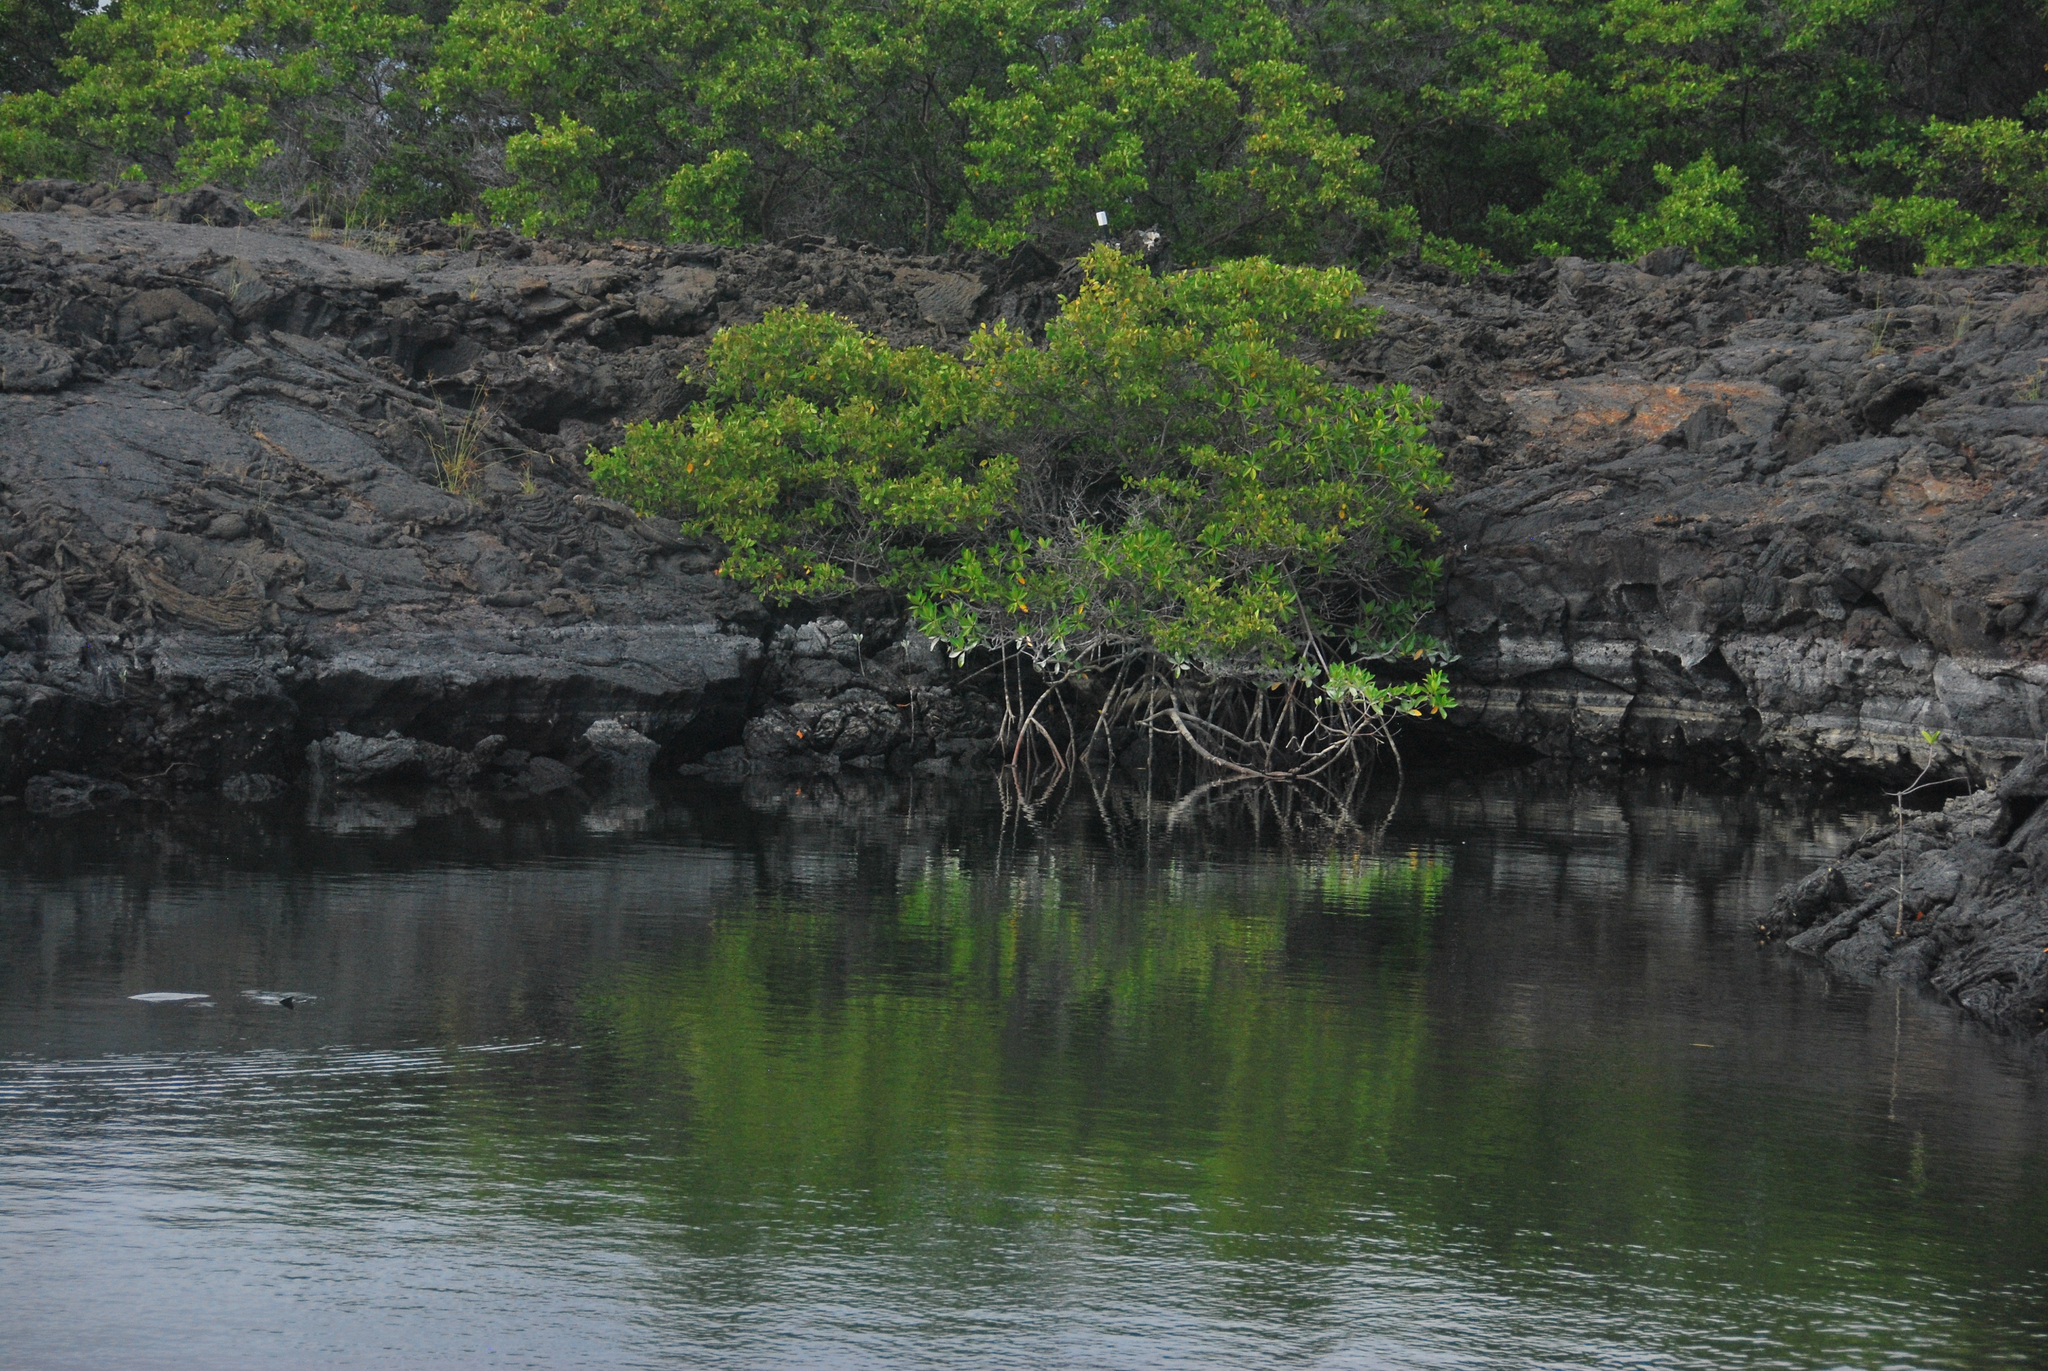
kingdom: Plantae
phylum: Tracheophyta
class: Magnoliopsida
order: Malpighiales
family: Rhizophoraceae
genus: Rhizophora
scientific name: Rhizophora mangle
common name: Red mangrove
